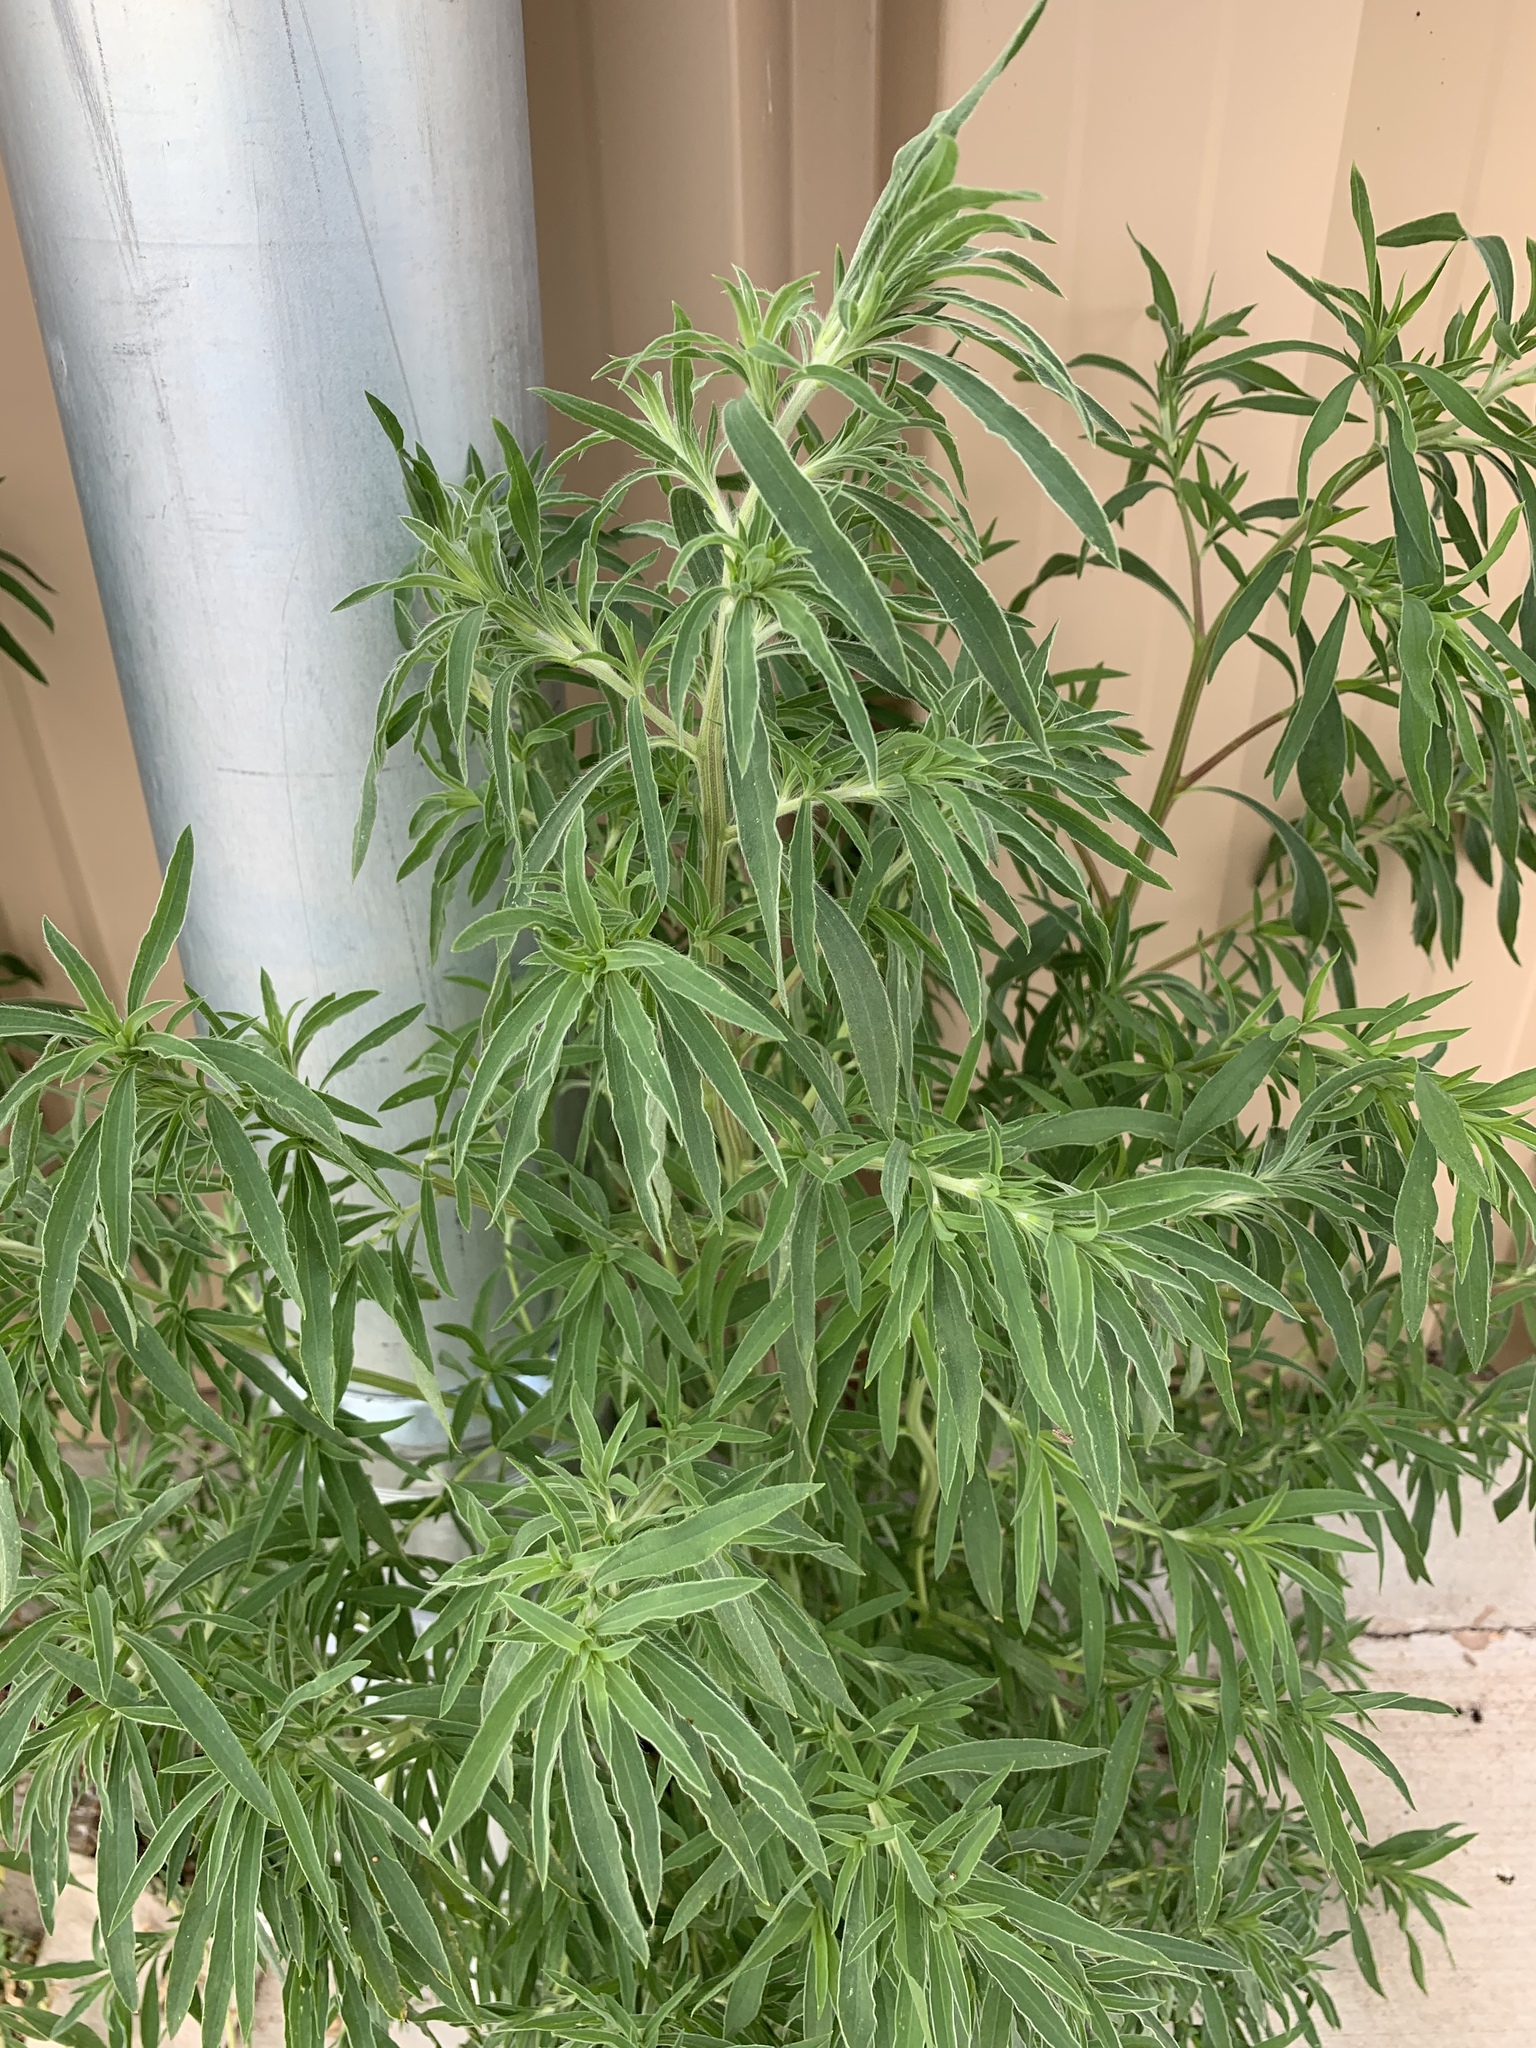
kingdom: Plantae
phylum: Tracheophyta
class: Magnoliopsida
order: Caryophyllales
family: Amaranthaceae
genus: Bassia
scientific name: Bassia scoparia
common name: Belvedere
